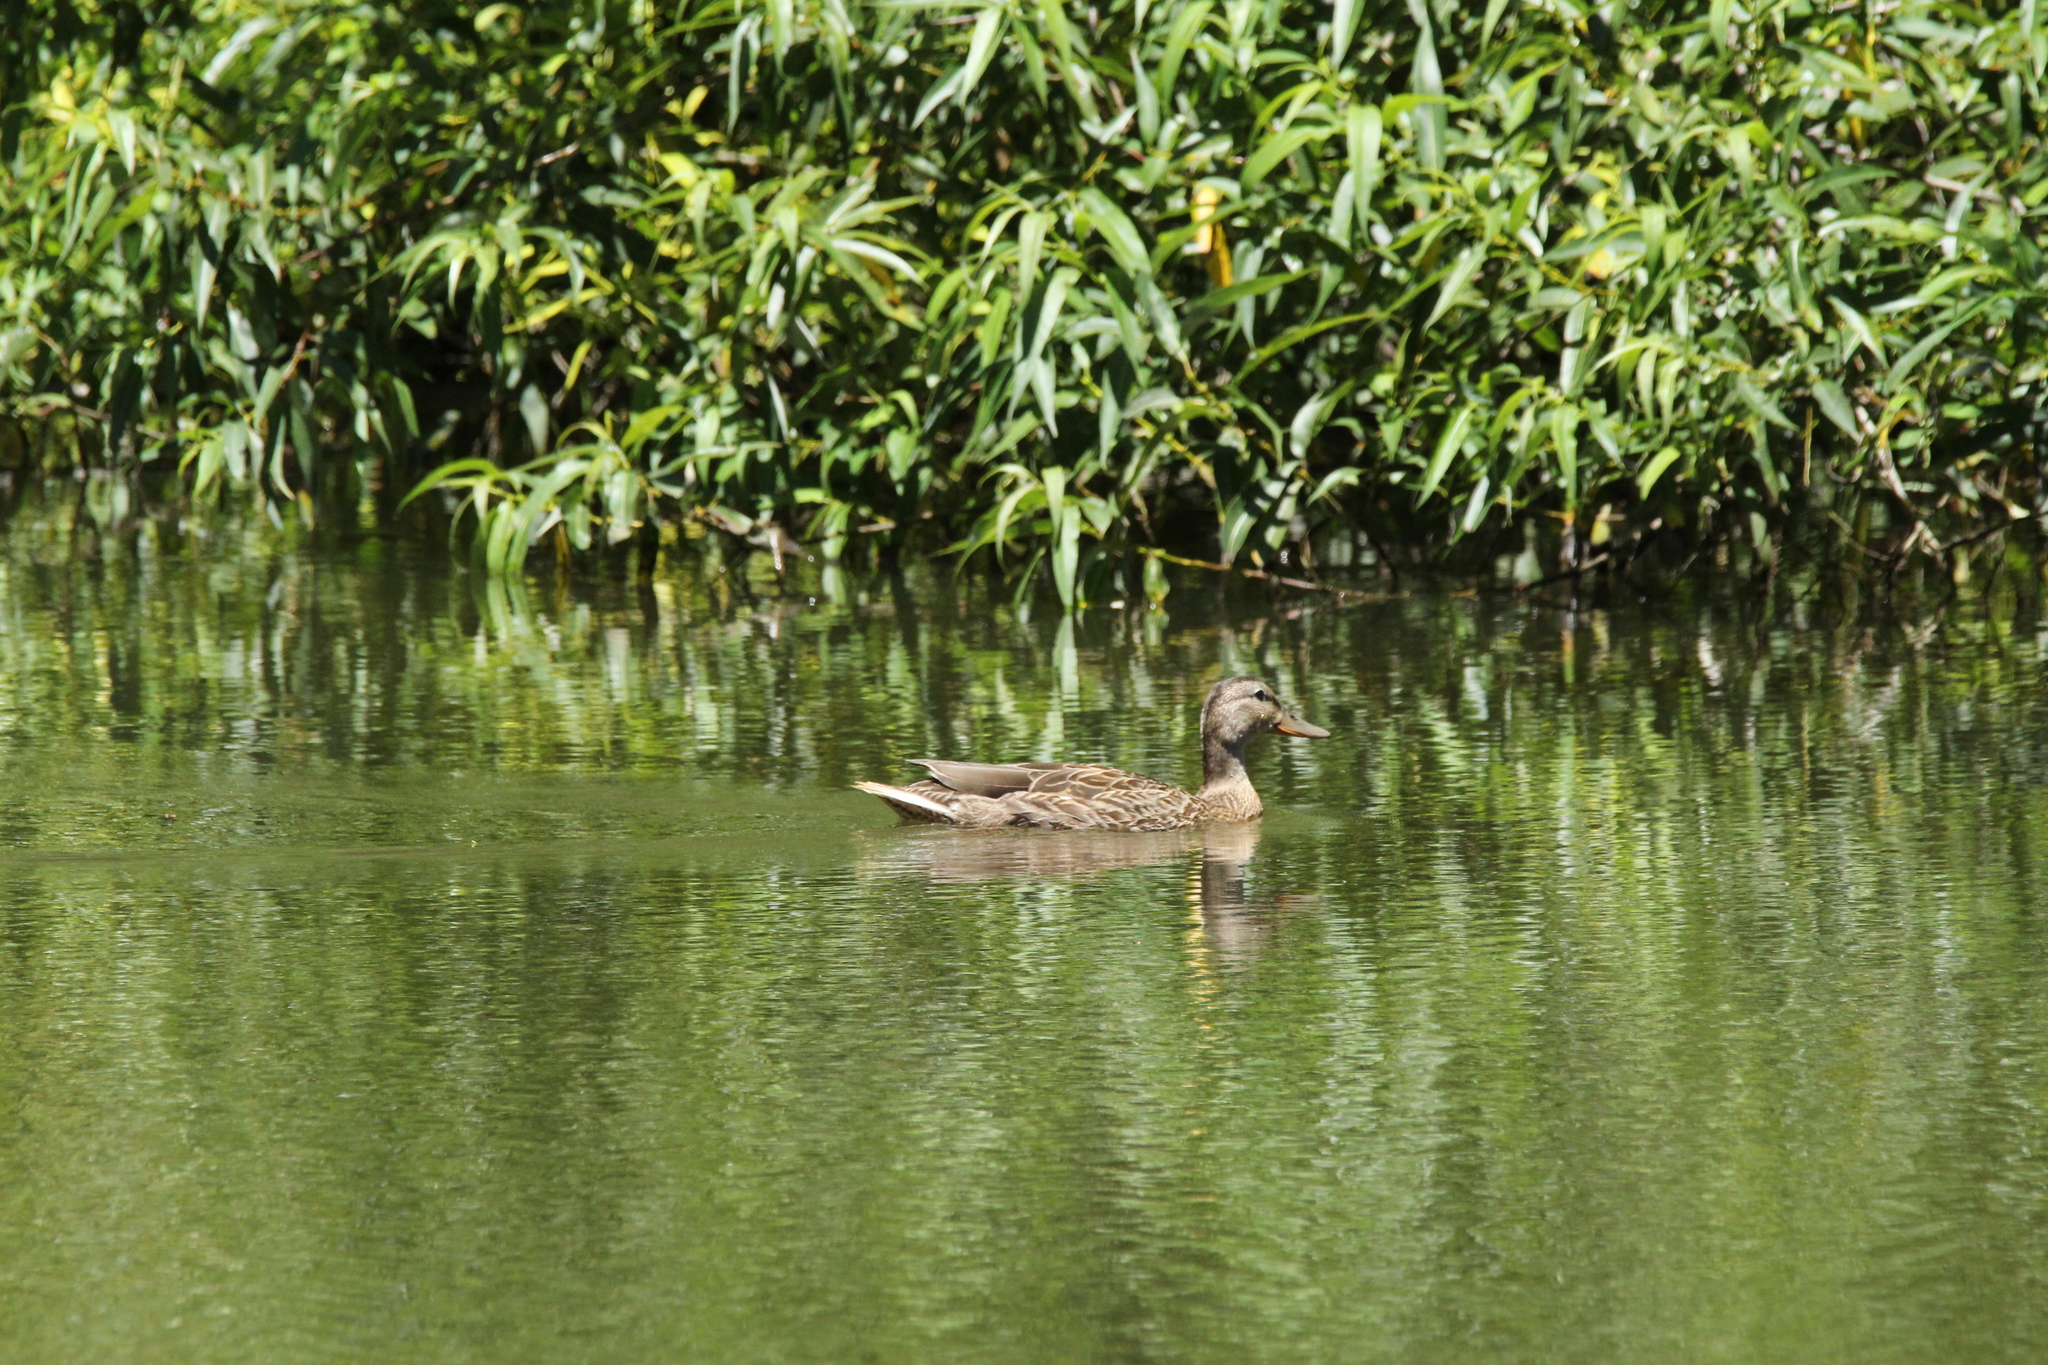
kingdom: Animalia
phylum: Chordata
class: Aves
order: Anseriformes
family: Anatidae
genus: Anas
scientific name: Anas platyrhynchos
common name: Mallard
